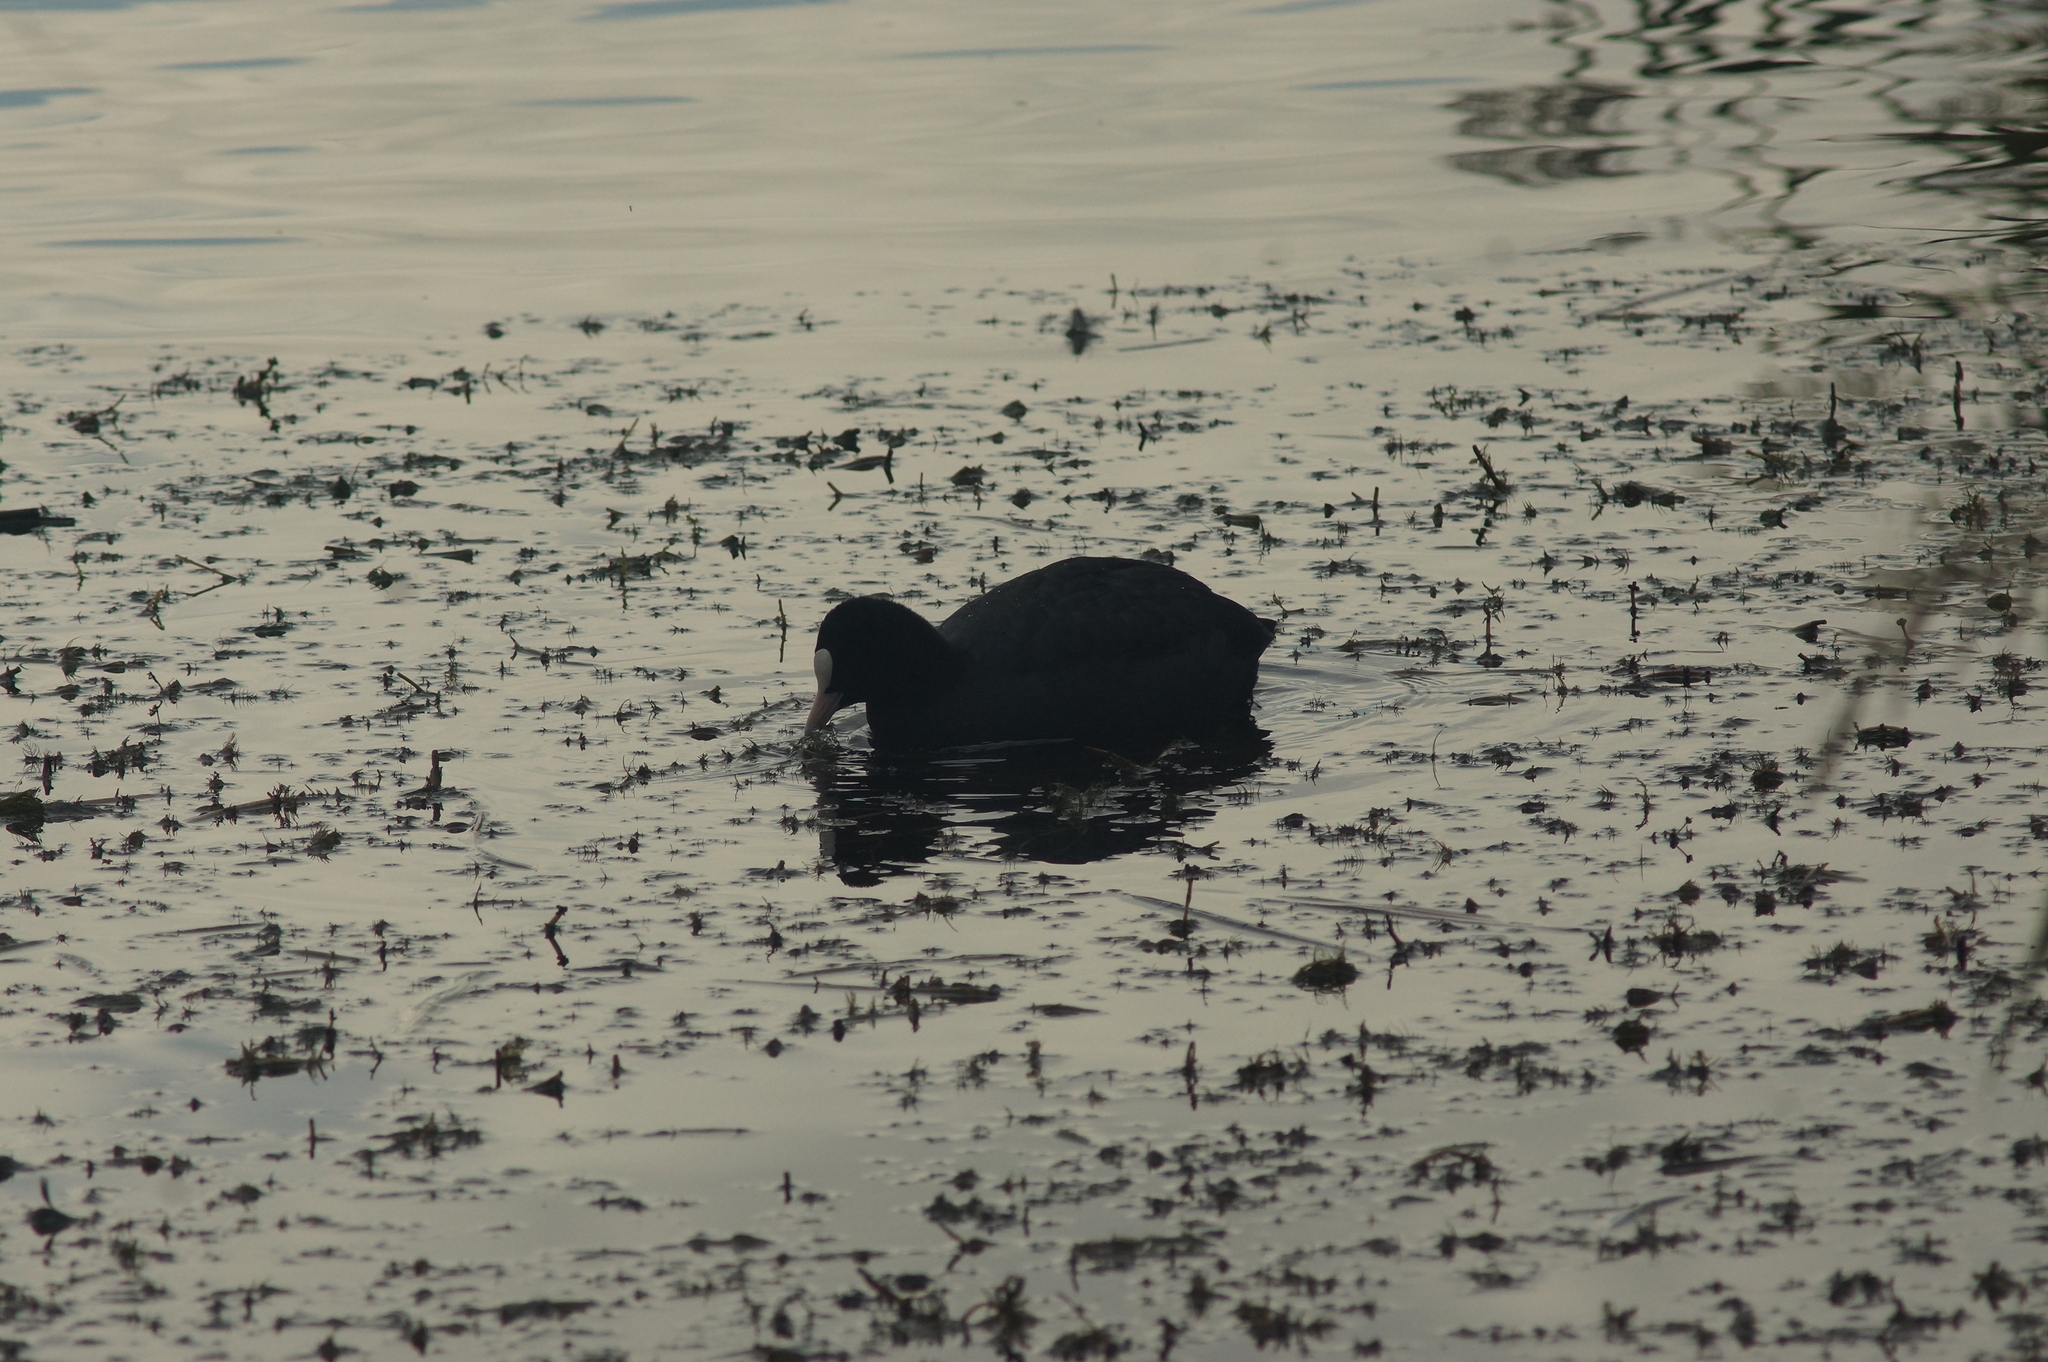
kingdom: Animalia
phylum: Chordata
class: Aves
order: Gruiformes
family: Rallidae
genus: Fulica
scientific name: Fulica atra
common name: Eurasian coot
